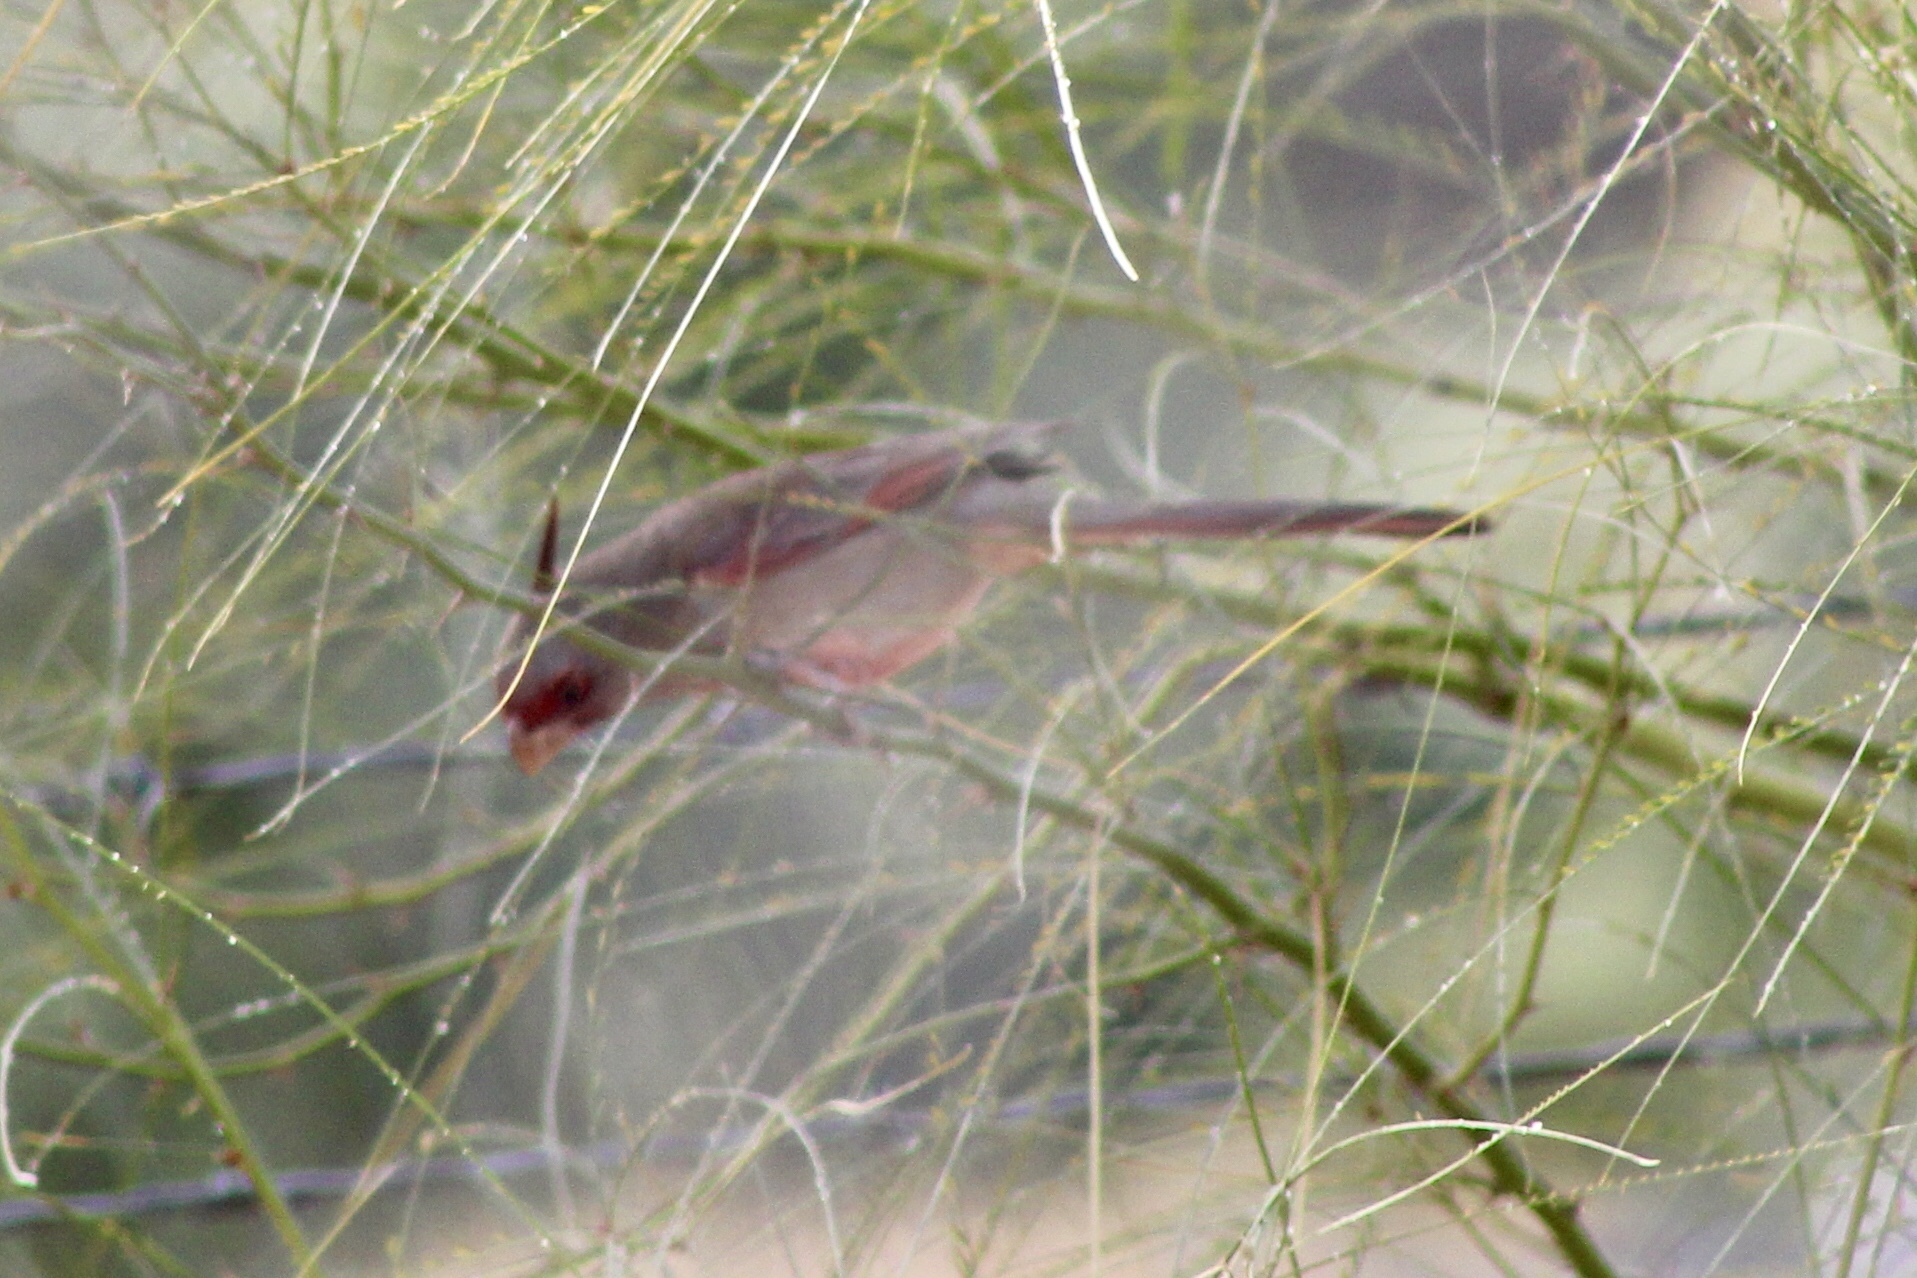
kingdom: Animalia
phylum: Chordata
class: Aves
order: Passeriformes
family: Cardinalidae
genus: Cardinalis
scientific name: Cardinalis sinuatus
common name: Pyrrhuloxia
